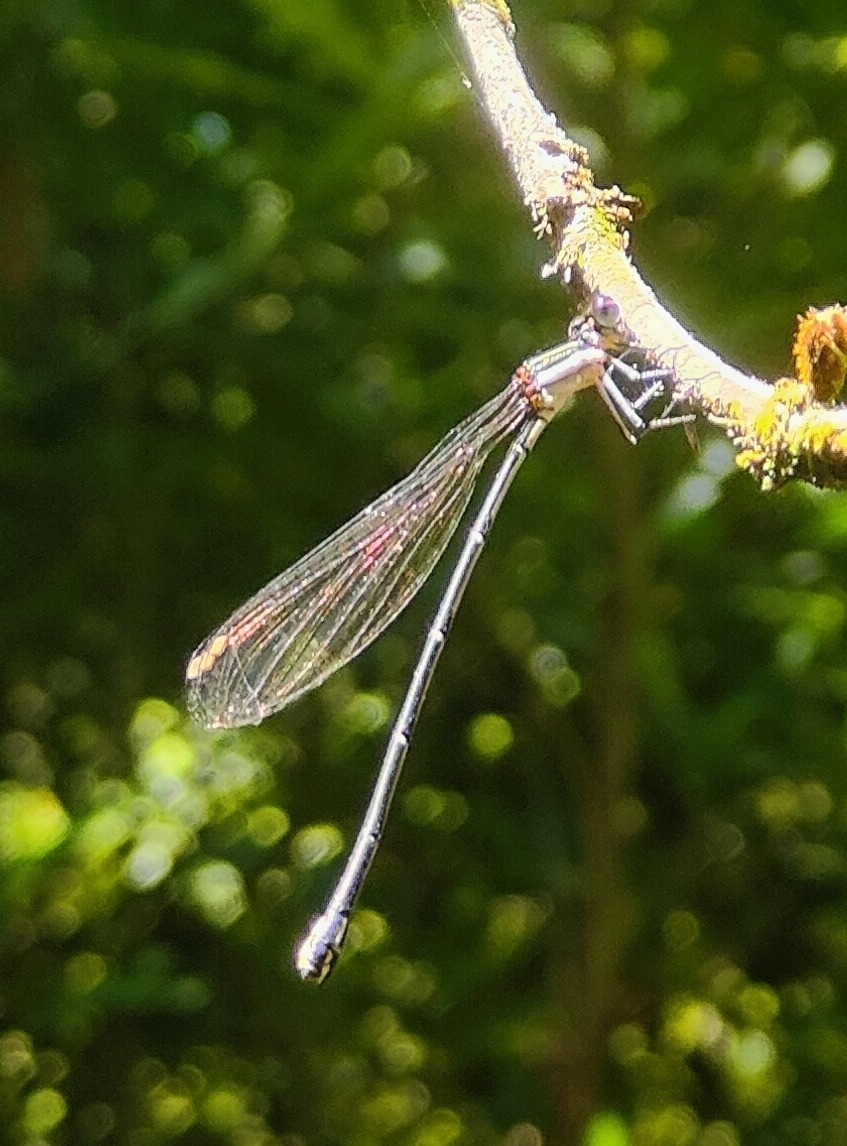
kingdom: Animalia
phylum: Arthropoda
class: Insecta
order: Odonata
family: Platycnemididae
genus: Allocnemis
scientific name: Allocnemis leucosticta
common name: Goldtail
